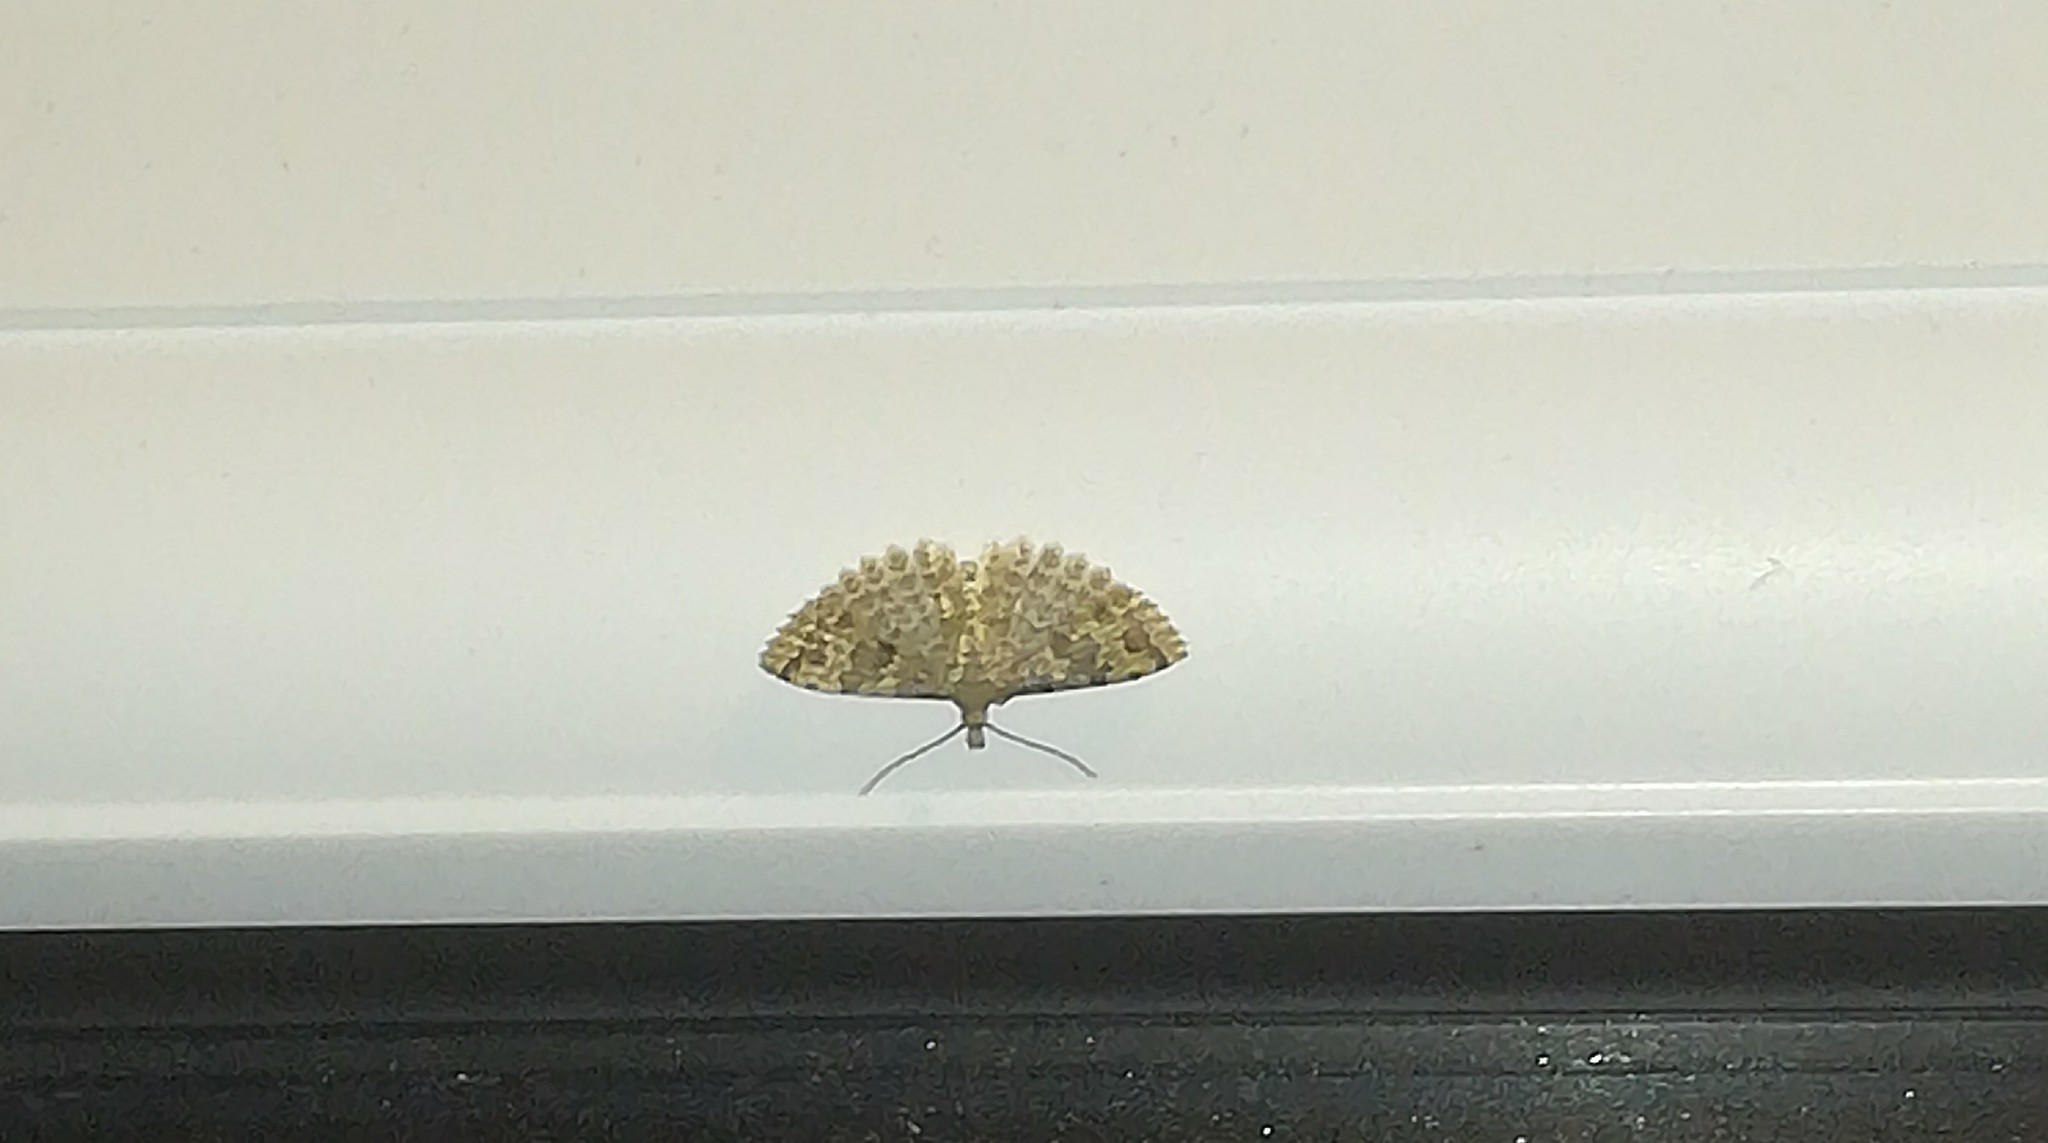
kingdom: Animalia
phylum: Arthropoda
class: Insecta
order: Lepidoptera
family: Alucitidae
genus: Alucita
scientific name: Alucita hexadactyla
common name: Twenty-plume moth
